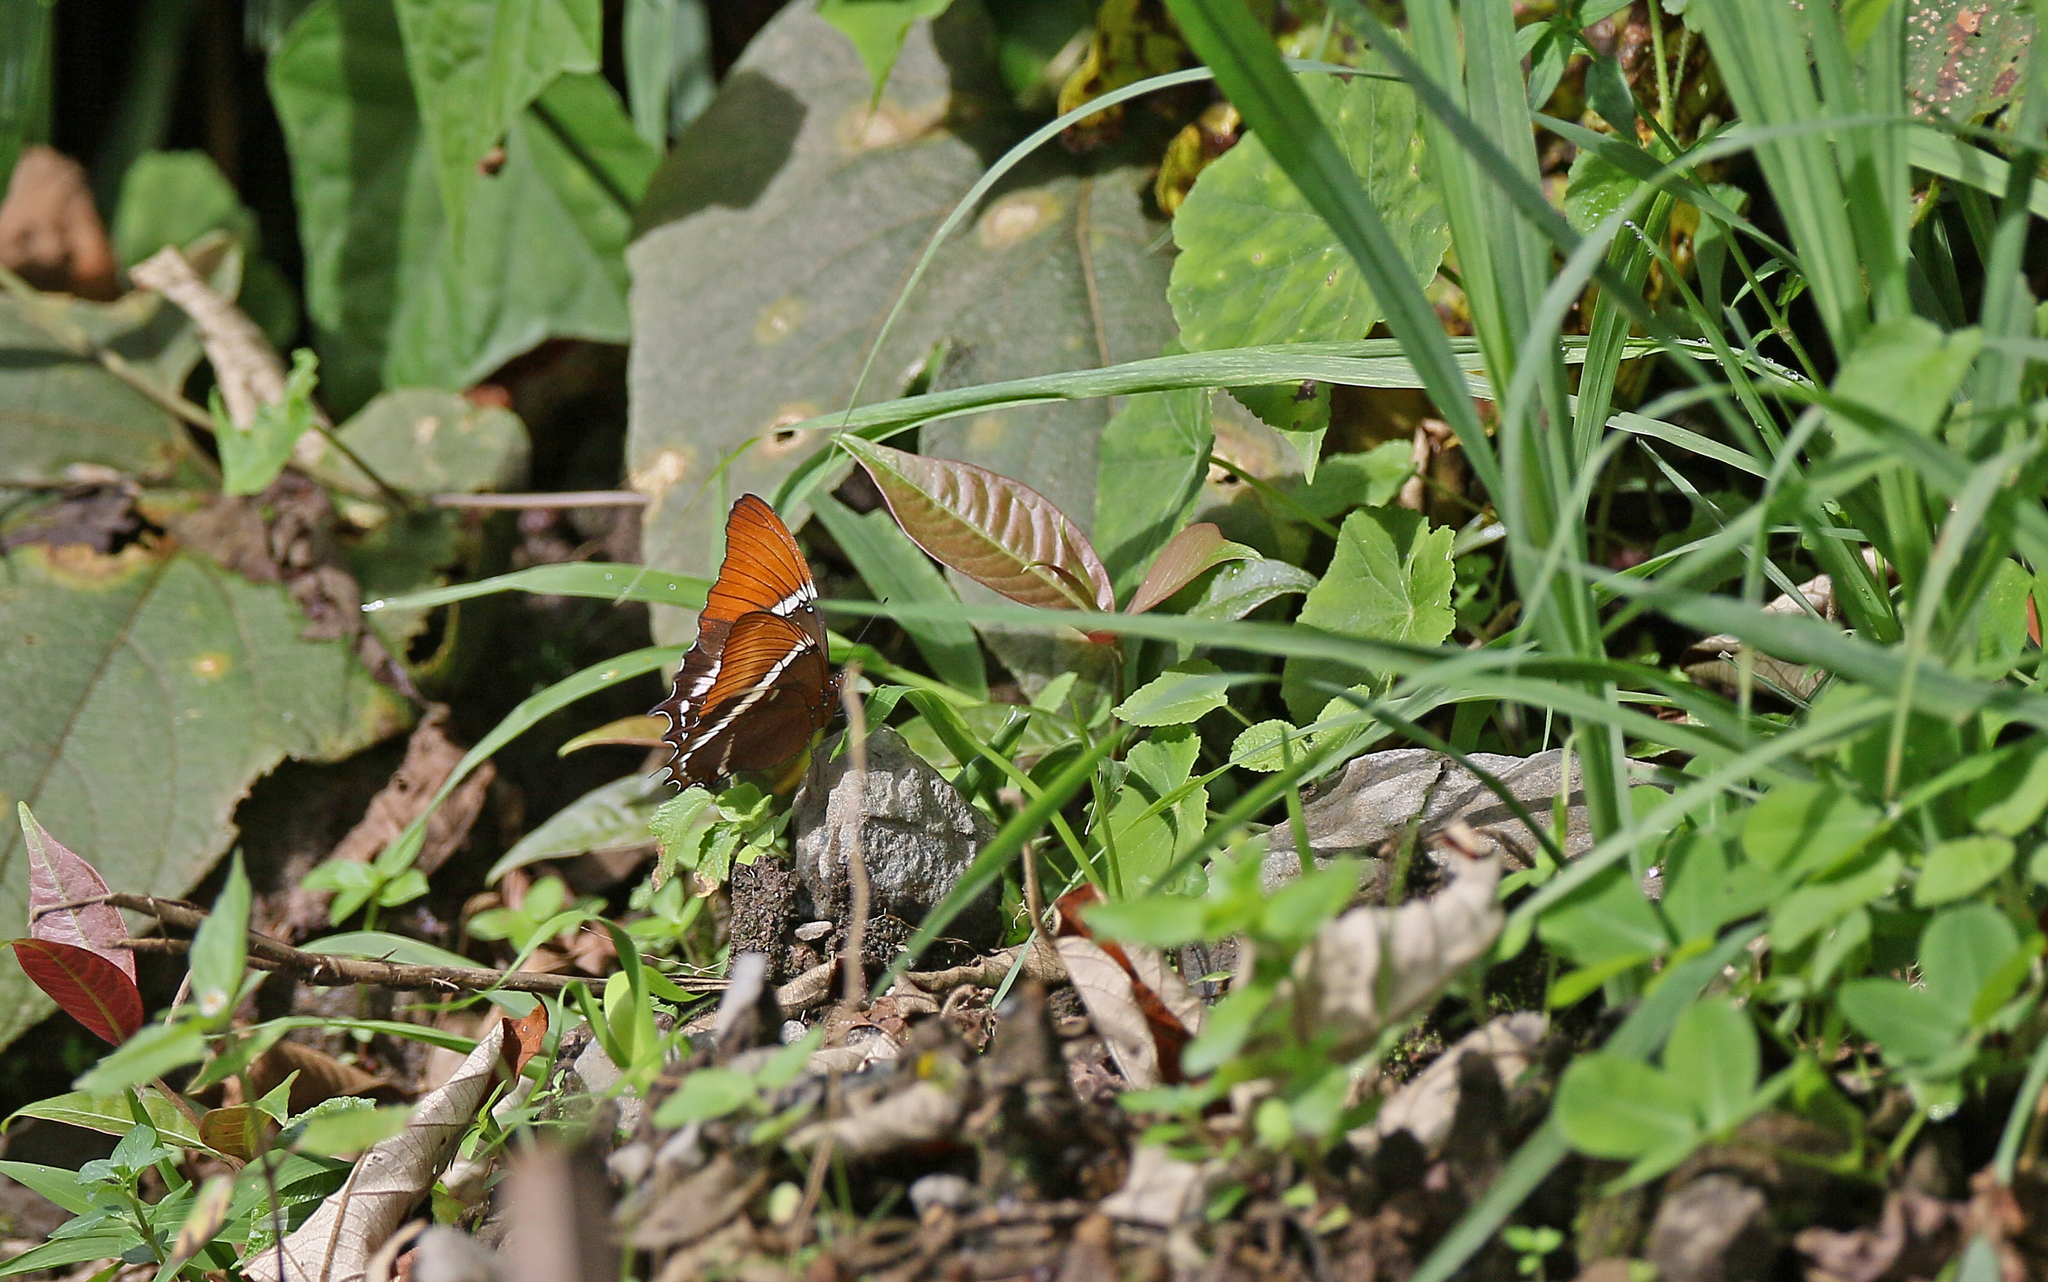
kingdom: Animalia
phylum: Arthropoda
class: Insecta
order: Lepidoptera
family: Nymphalidae
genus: Siproeta
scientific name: Siproeta epaphus
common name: Rusty-tipped page
